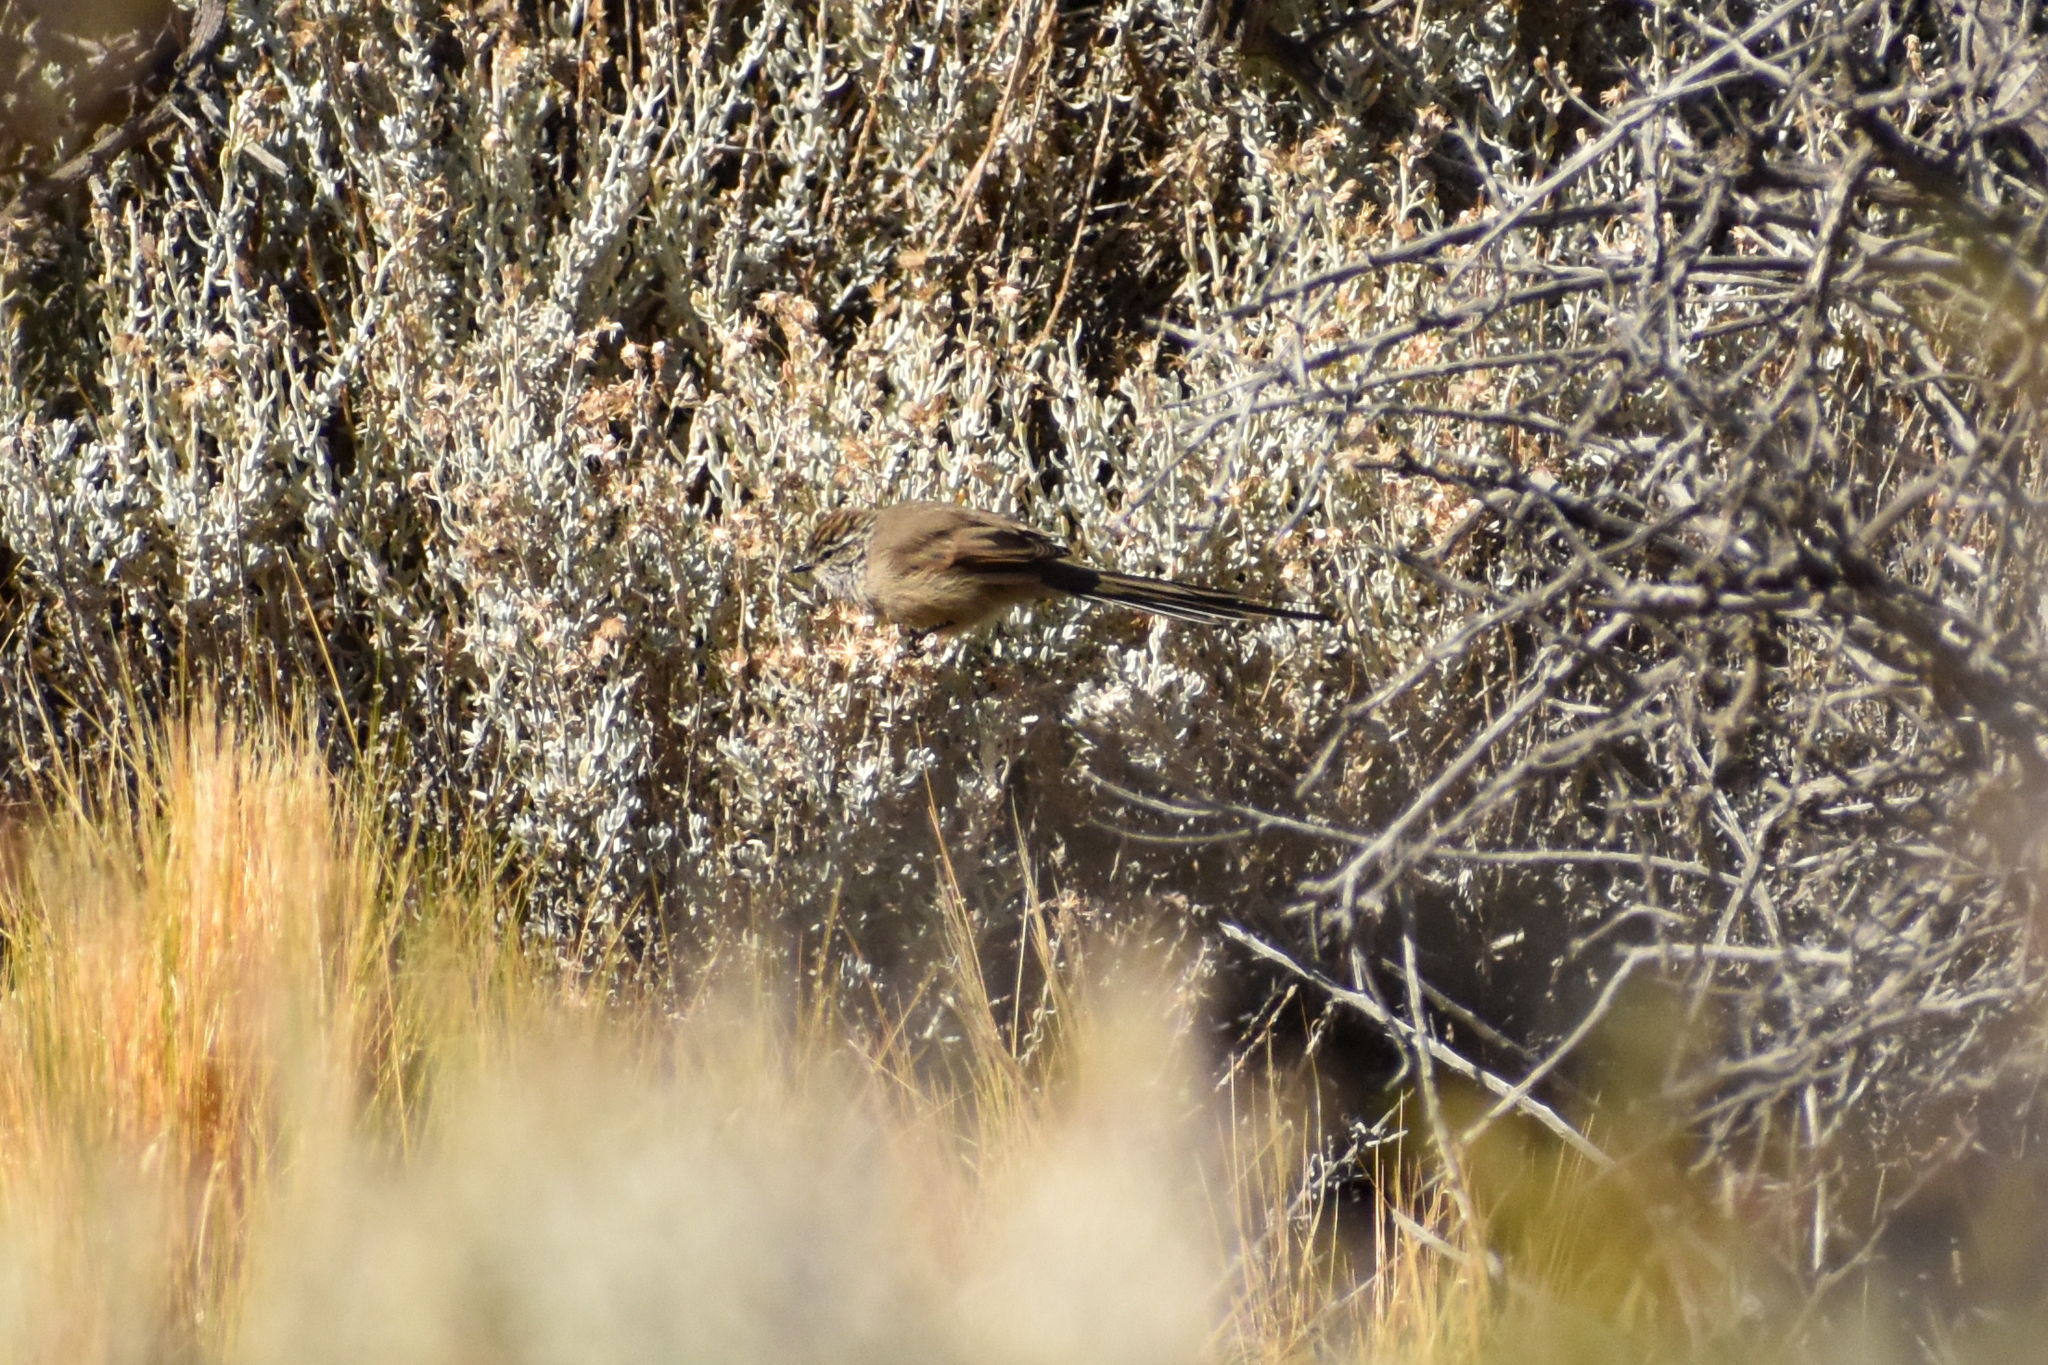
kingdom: Animalia
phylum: Chordata
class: Aves
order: Passeriformes
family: Furnariidae
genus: Leptasthenura
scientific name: Leptasthenura aegithaloides
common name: Plain-mantled tit-spinetail
